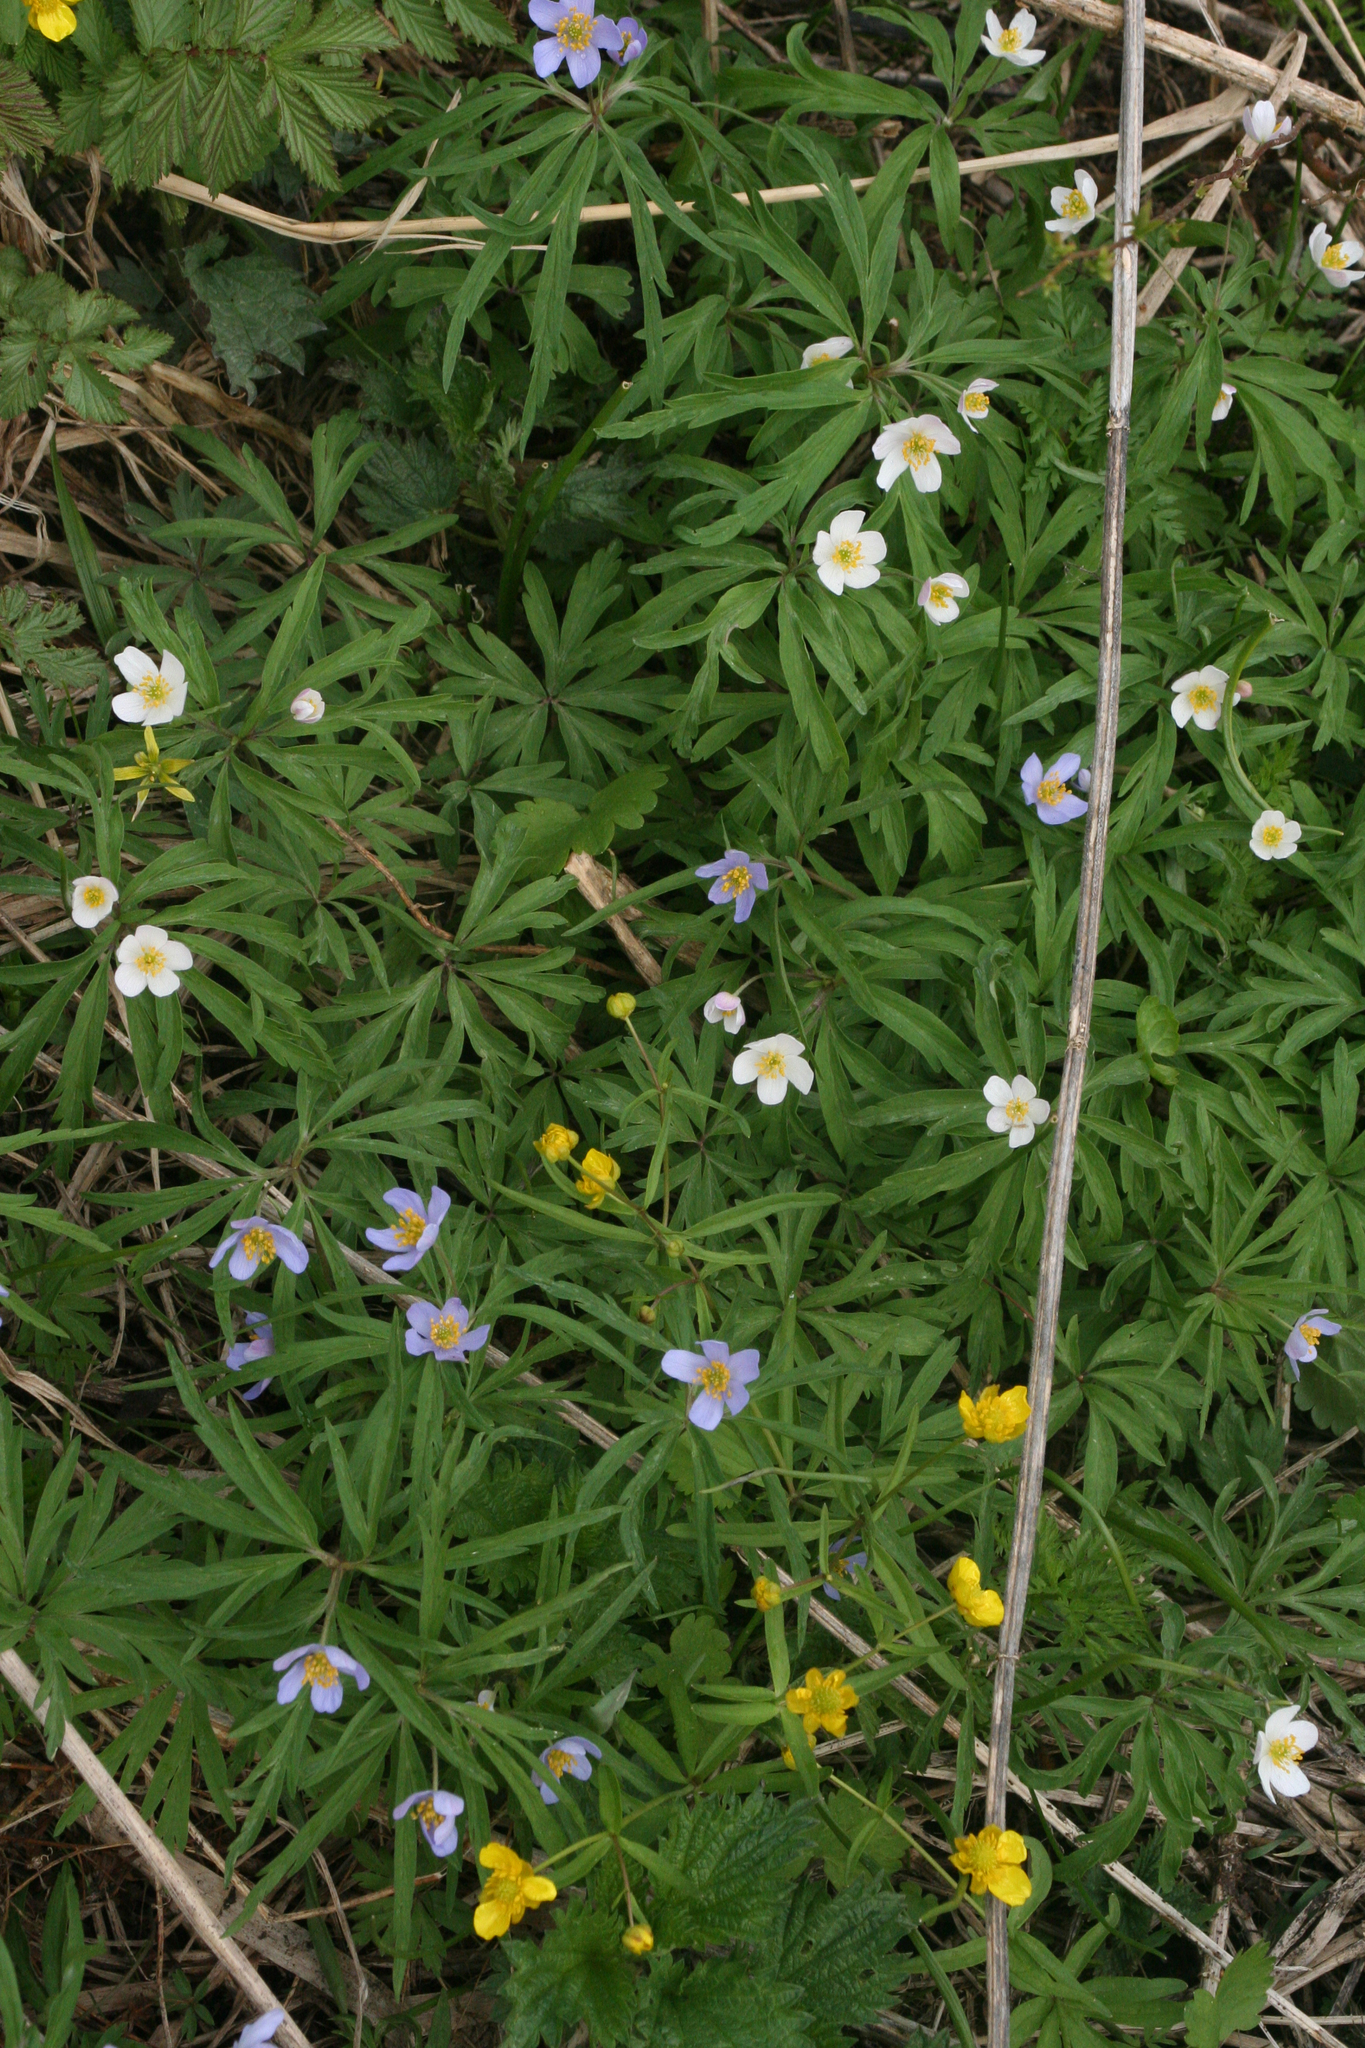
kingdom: Plantae
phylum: Tracheophyta
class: Magnoliopsida
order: Ranunculales
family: Ranunculaceae
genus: Anemone
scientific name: Anemone caerulea
